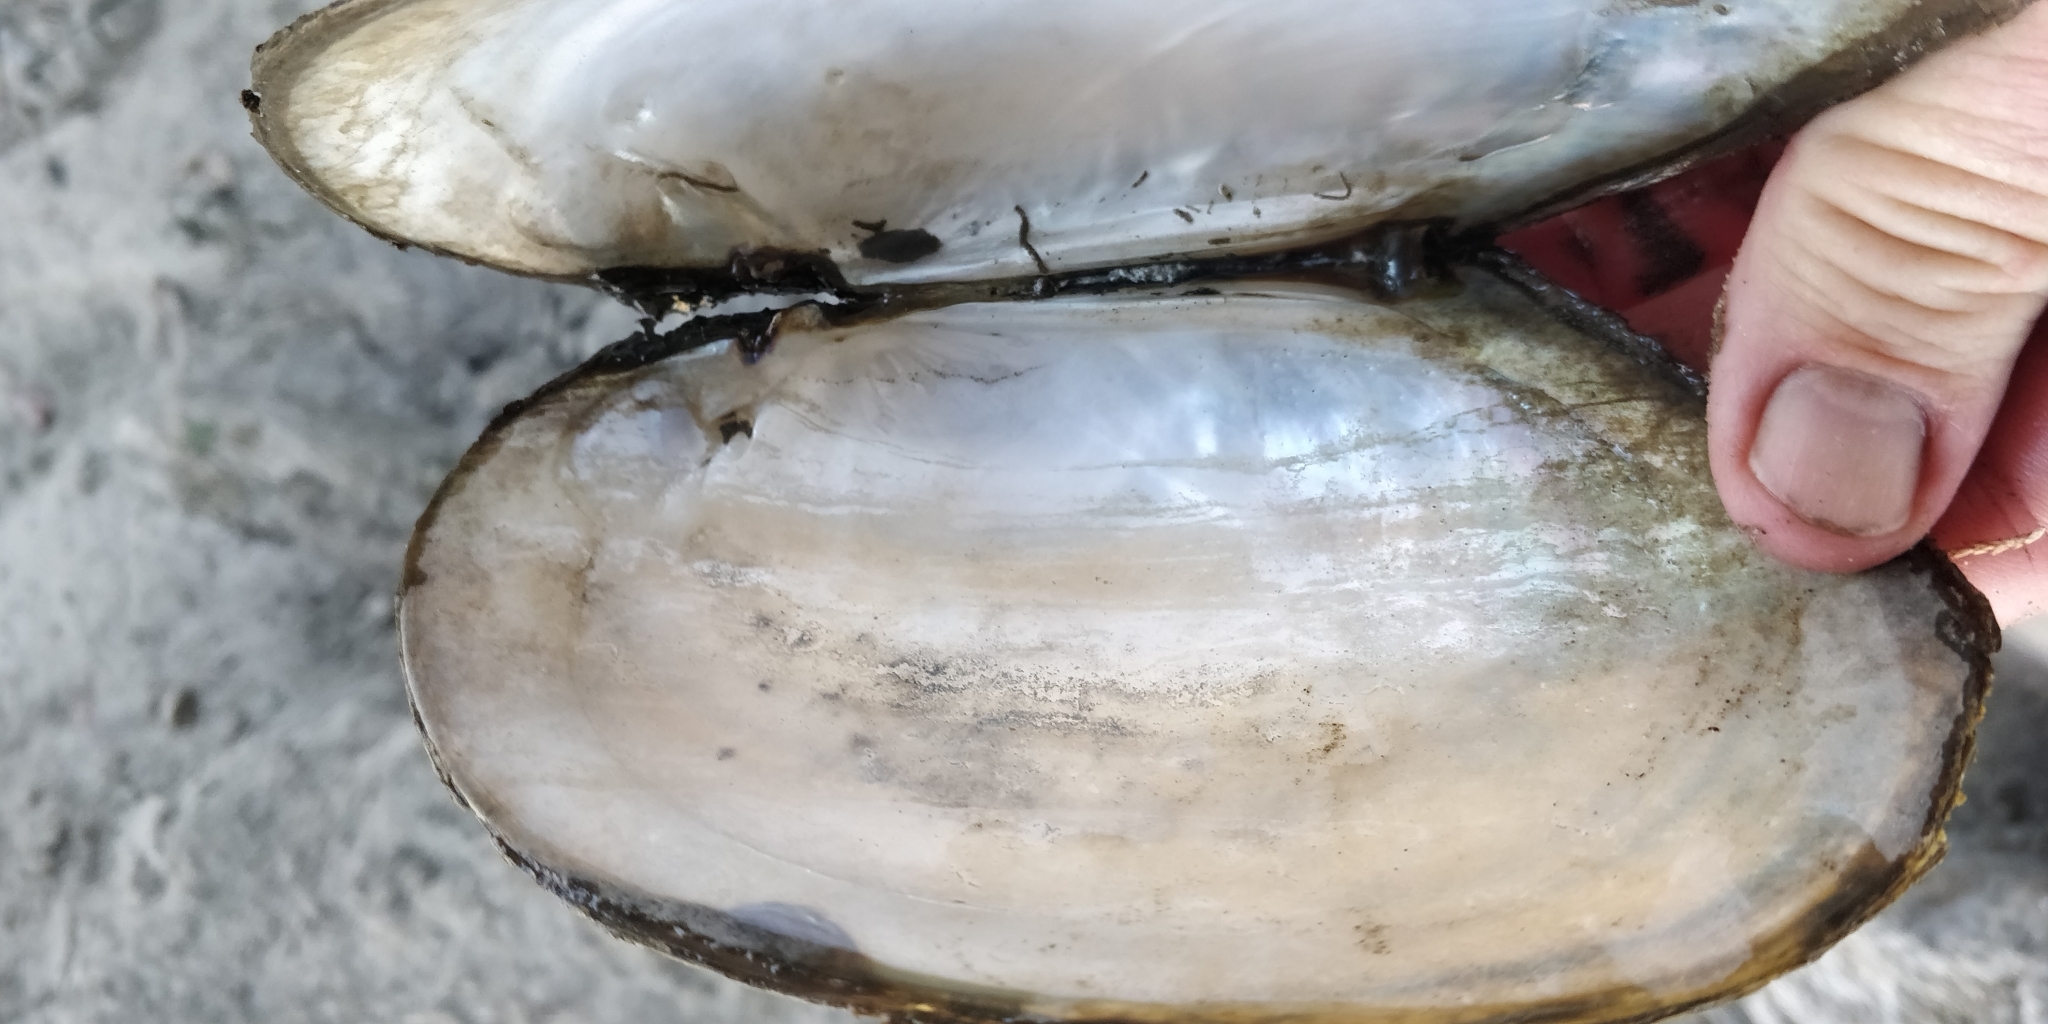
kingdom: Animalia
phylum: Mollusca
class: Bivalvia
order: Unionida
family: Unionidae
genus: Potamilus
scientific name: Potamilus fragilis
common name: Fragile papershell
